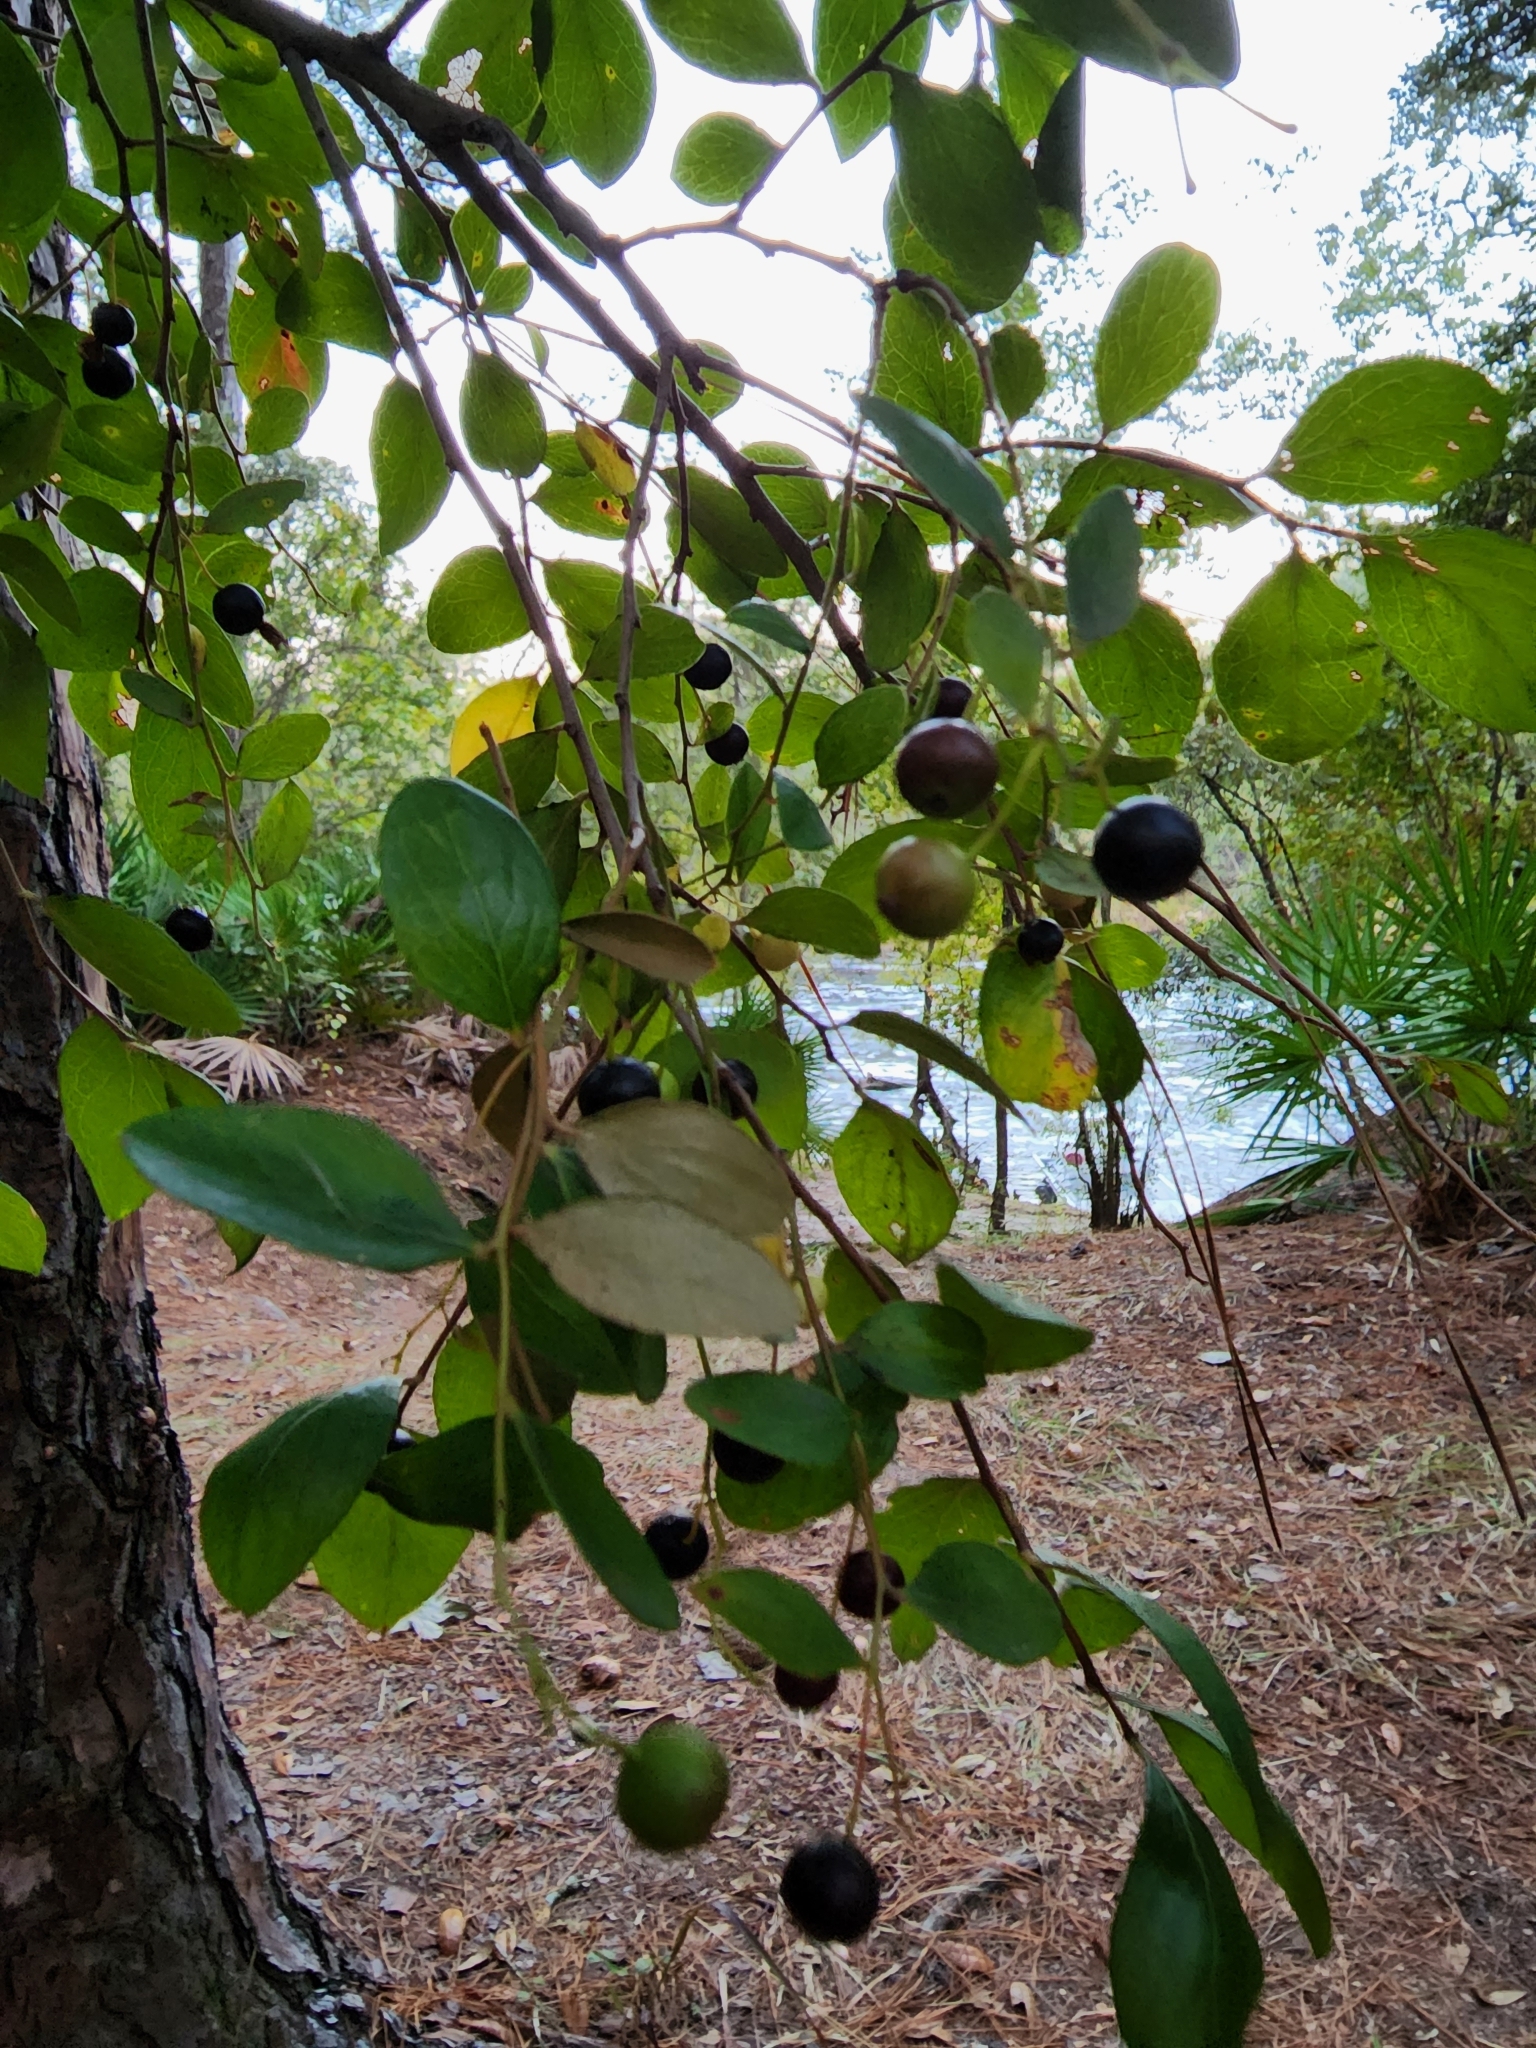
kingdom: Plantae
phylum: Tracheophyta
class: Magnoliopsida
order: Ericales
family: Ericaceae
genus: Vaccinium
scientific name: Vaccinium arboreum
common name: Farkleberry
